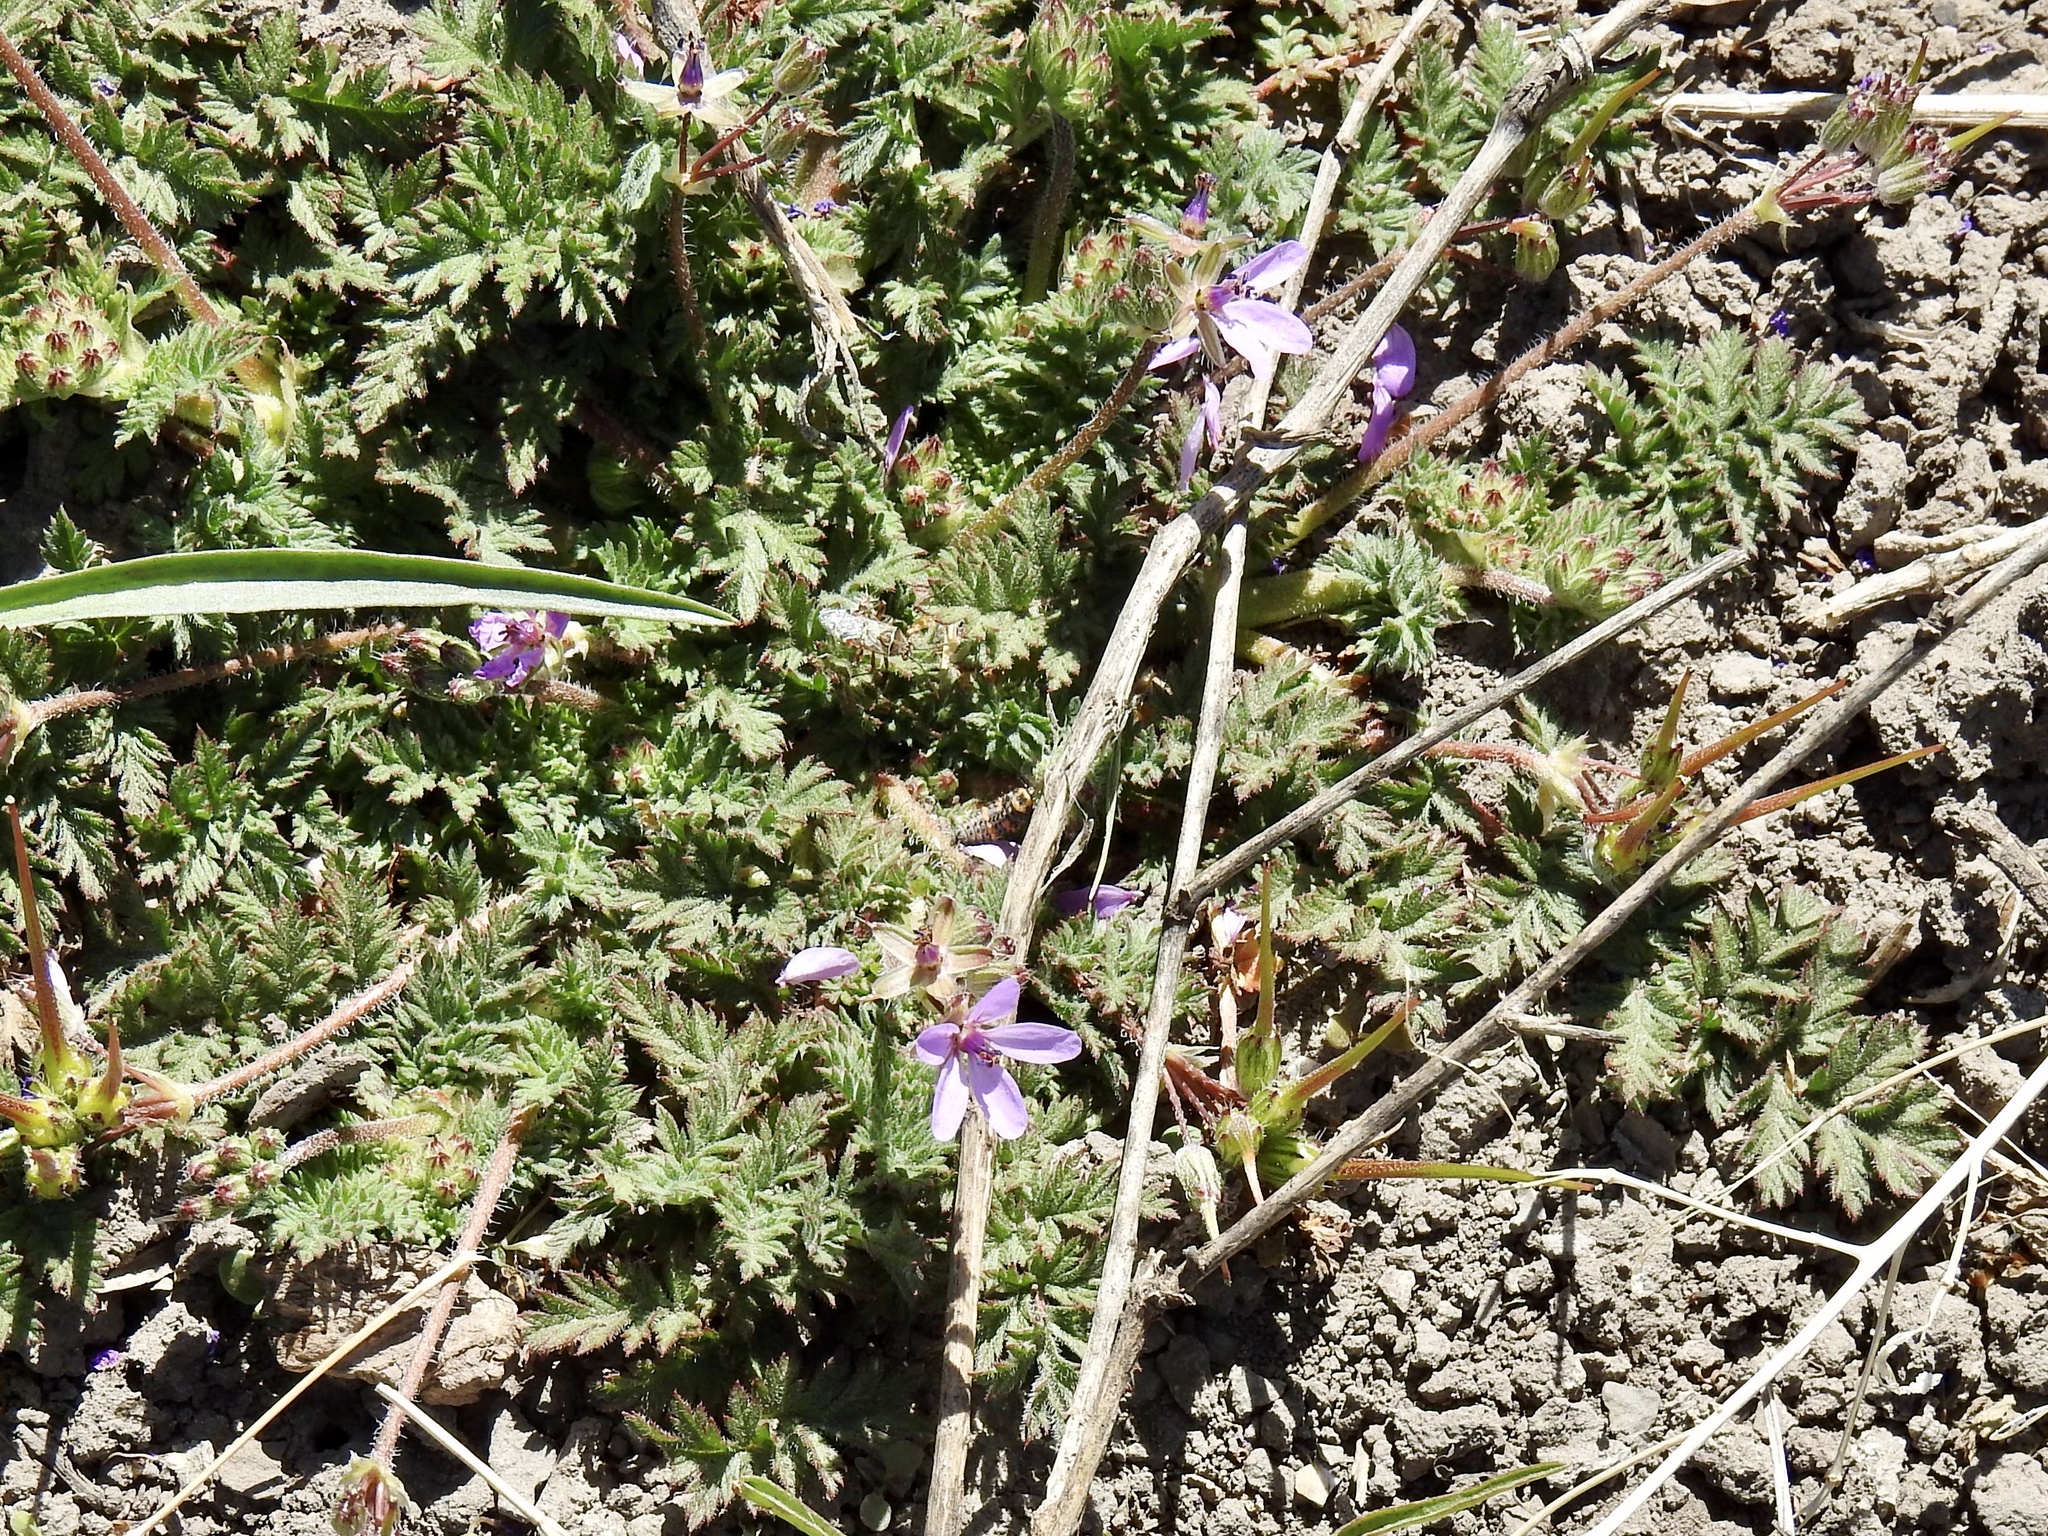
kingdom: Plantae
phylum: Tracheophyta
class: Magnoliopsida
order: Geraniales
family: Geraniaceae
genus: Erodium
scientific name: Erodium cicutarium
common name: Common stork's-bill
